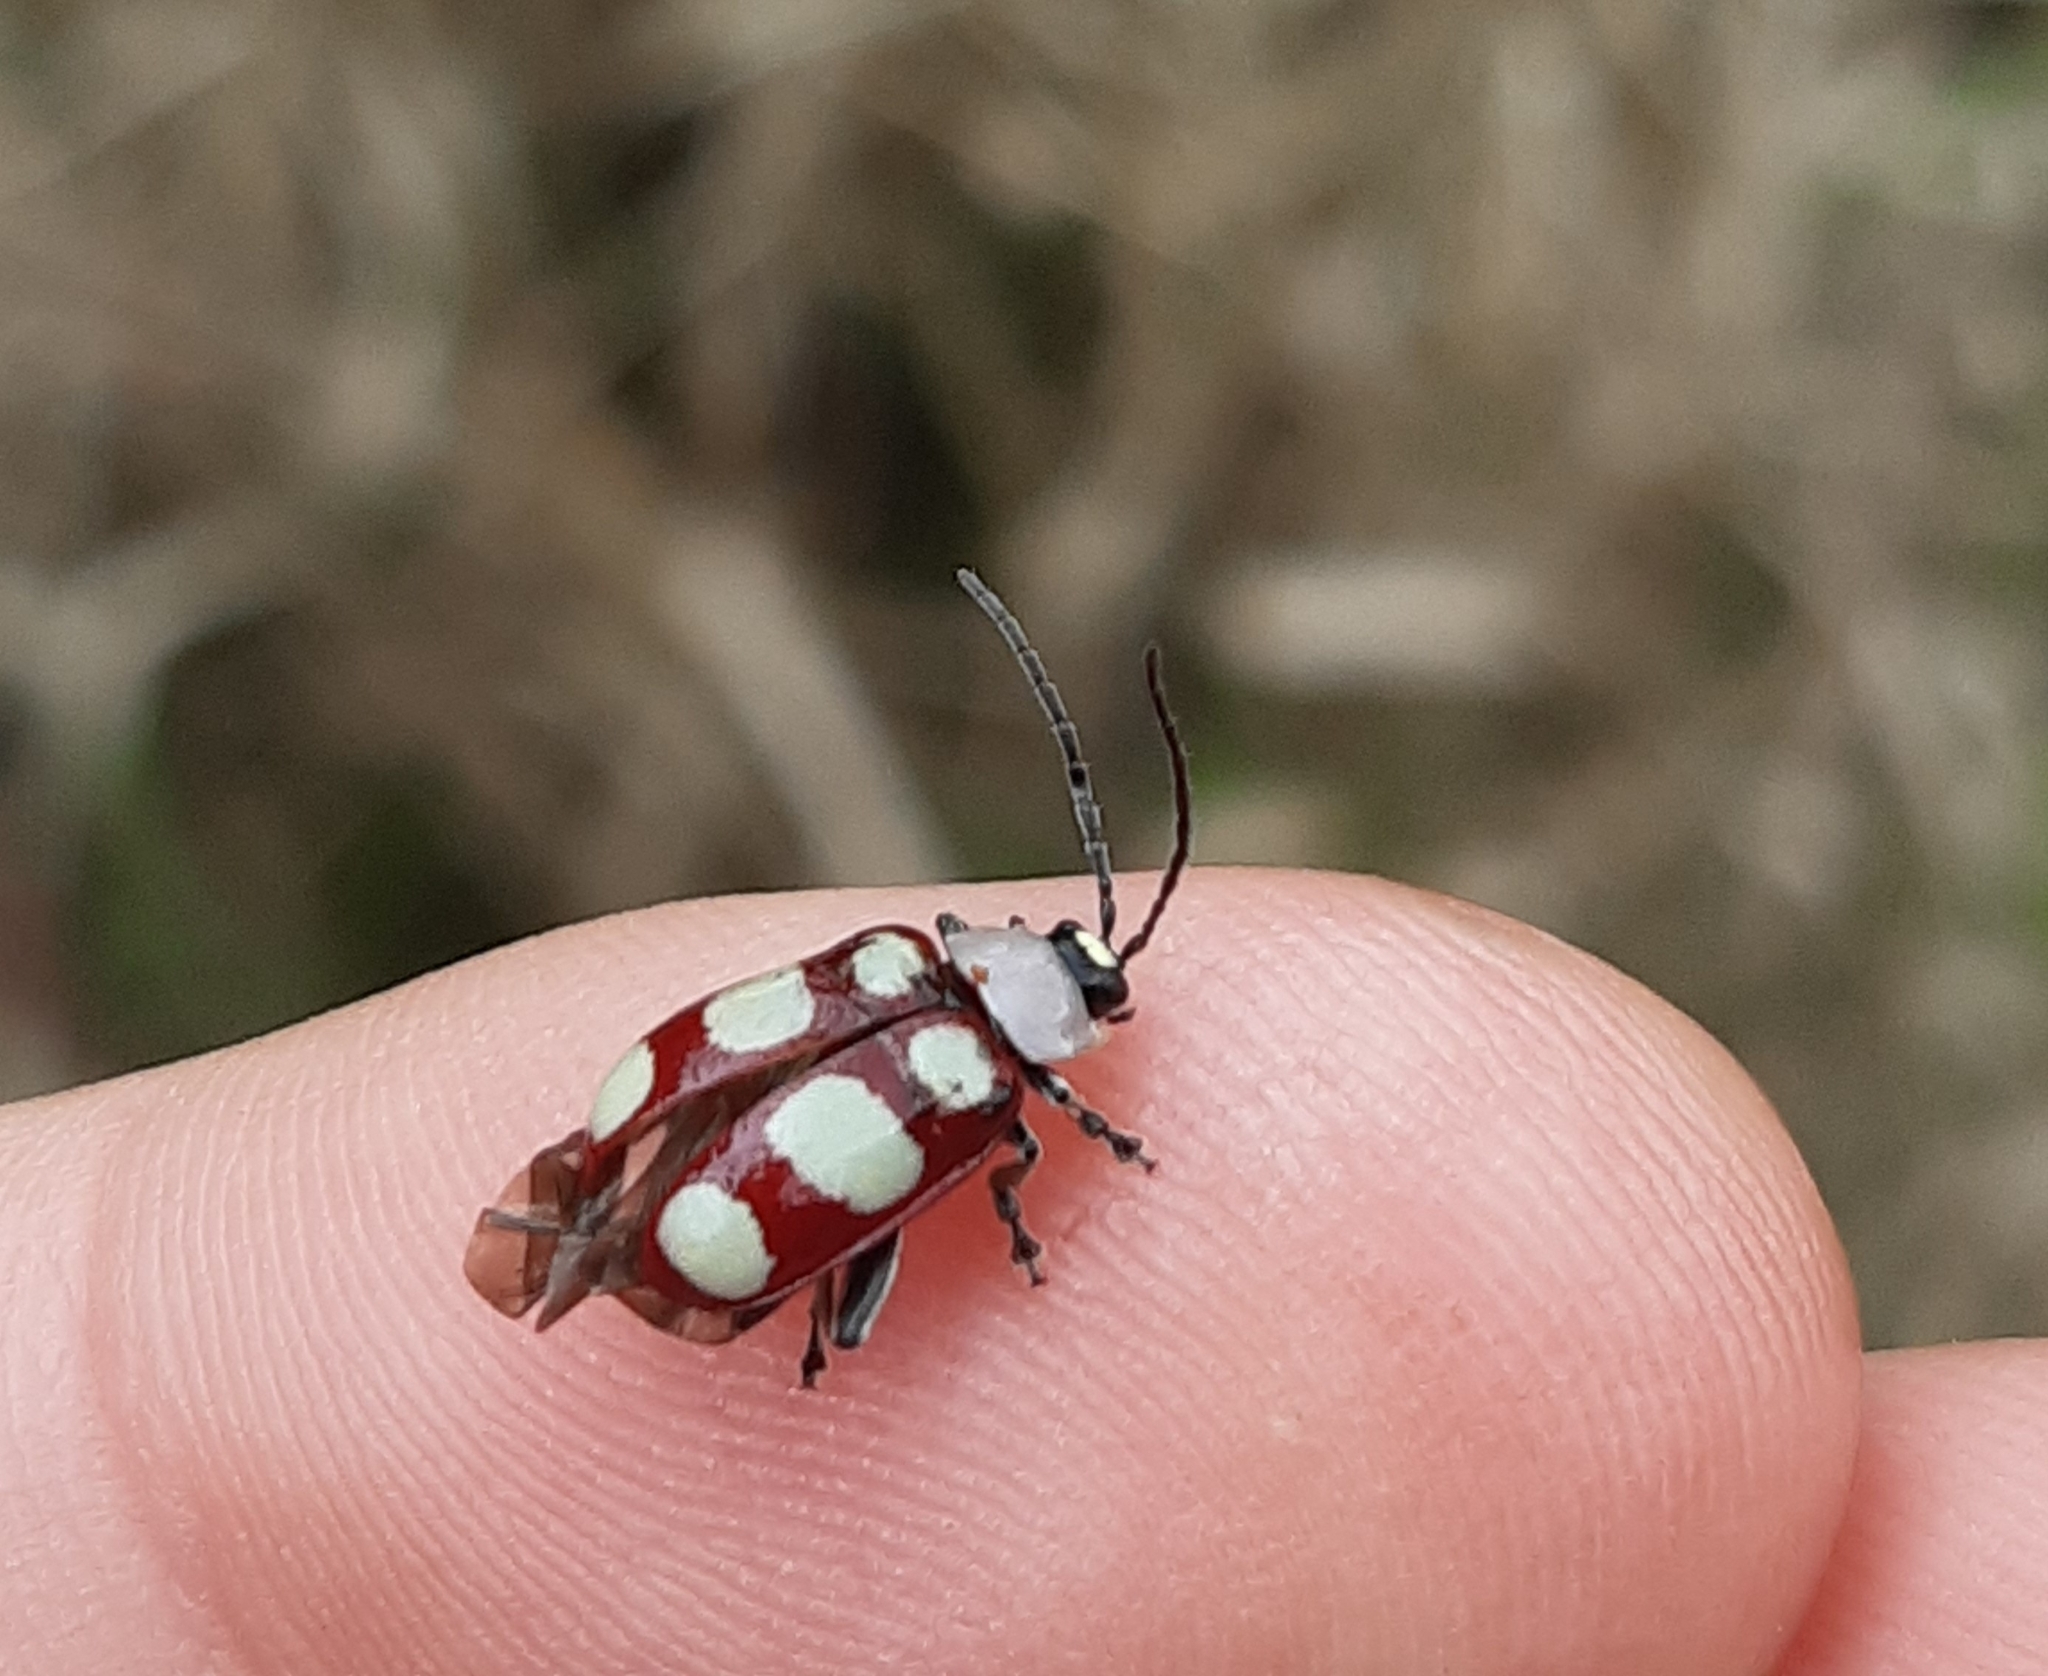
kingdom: Animalia
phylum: Arthropoda
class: Insecta
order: Coleoptera
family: Chrysomelidae
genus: Omophoita
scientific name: Omophoita
